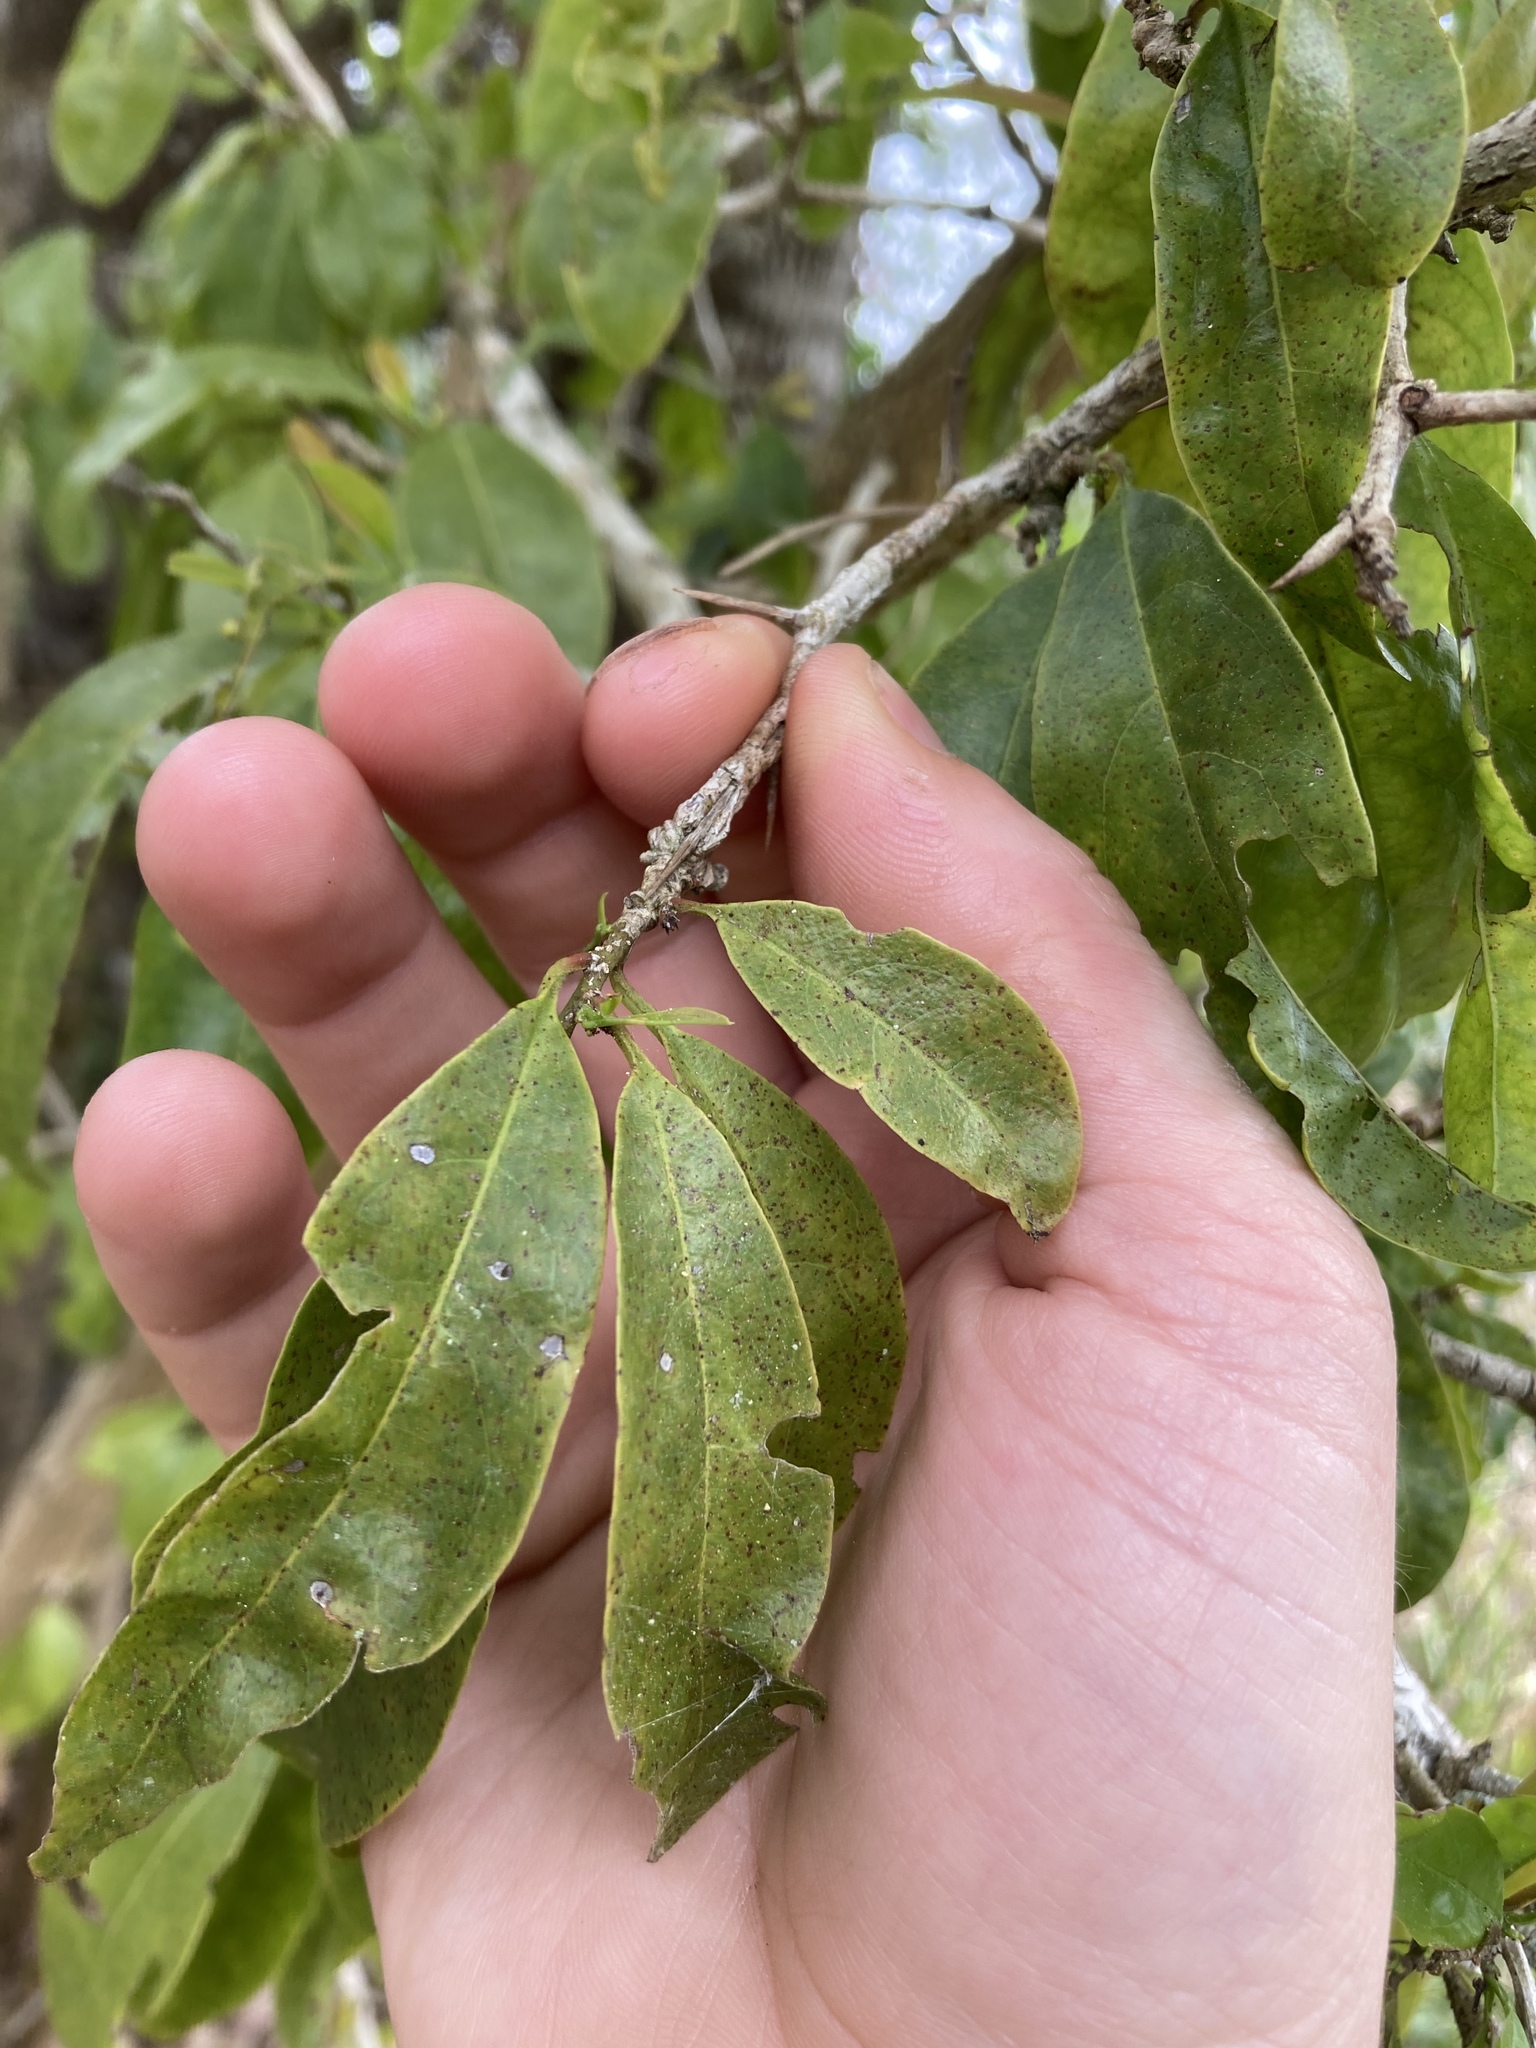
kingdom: Plantae
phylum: Tracheophyta
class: Magnoliopsida
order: Santalales
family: Ximeniaceae
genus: Ximenia
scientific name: Ximenia americana
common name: Tallowwood
